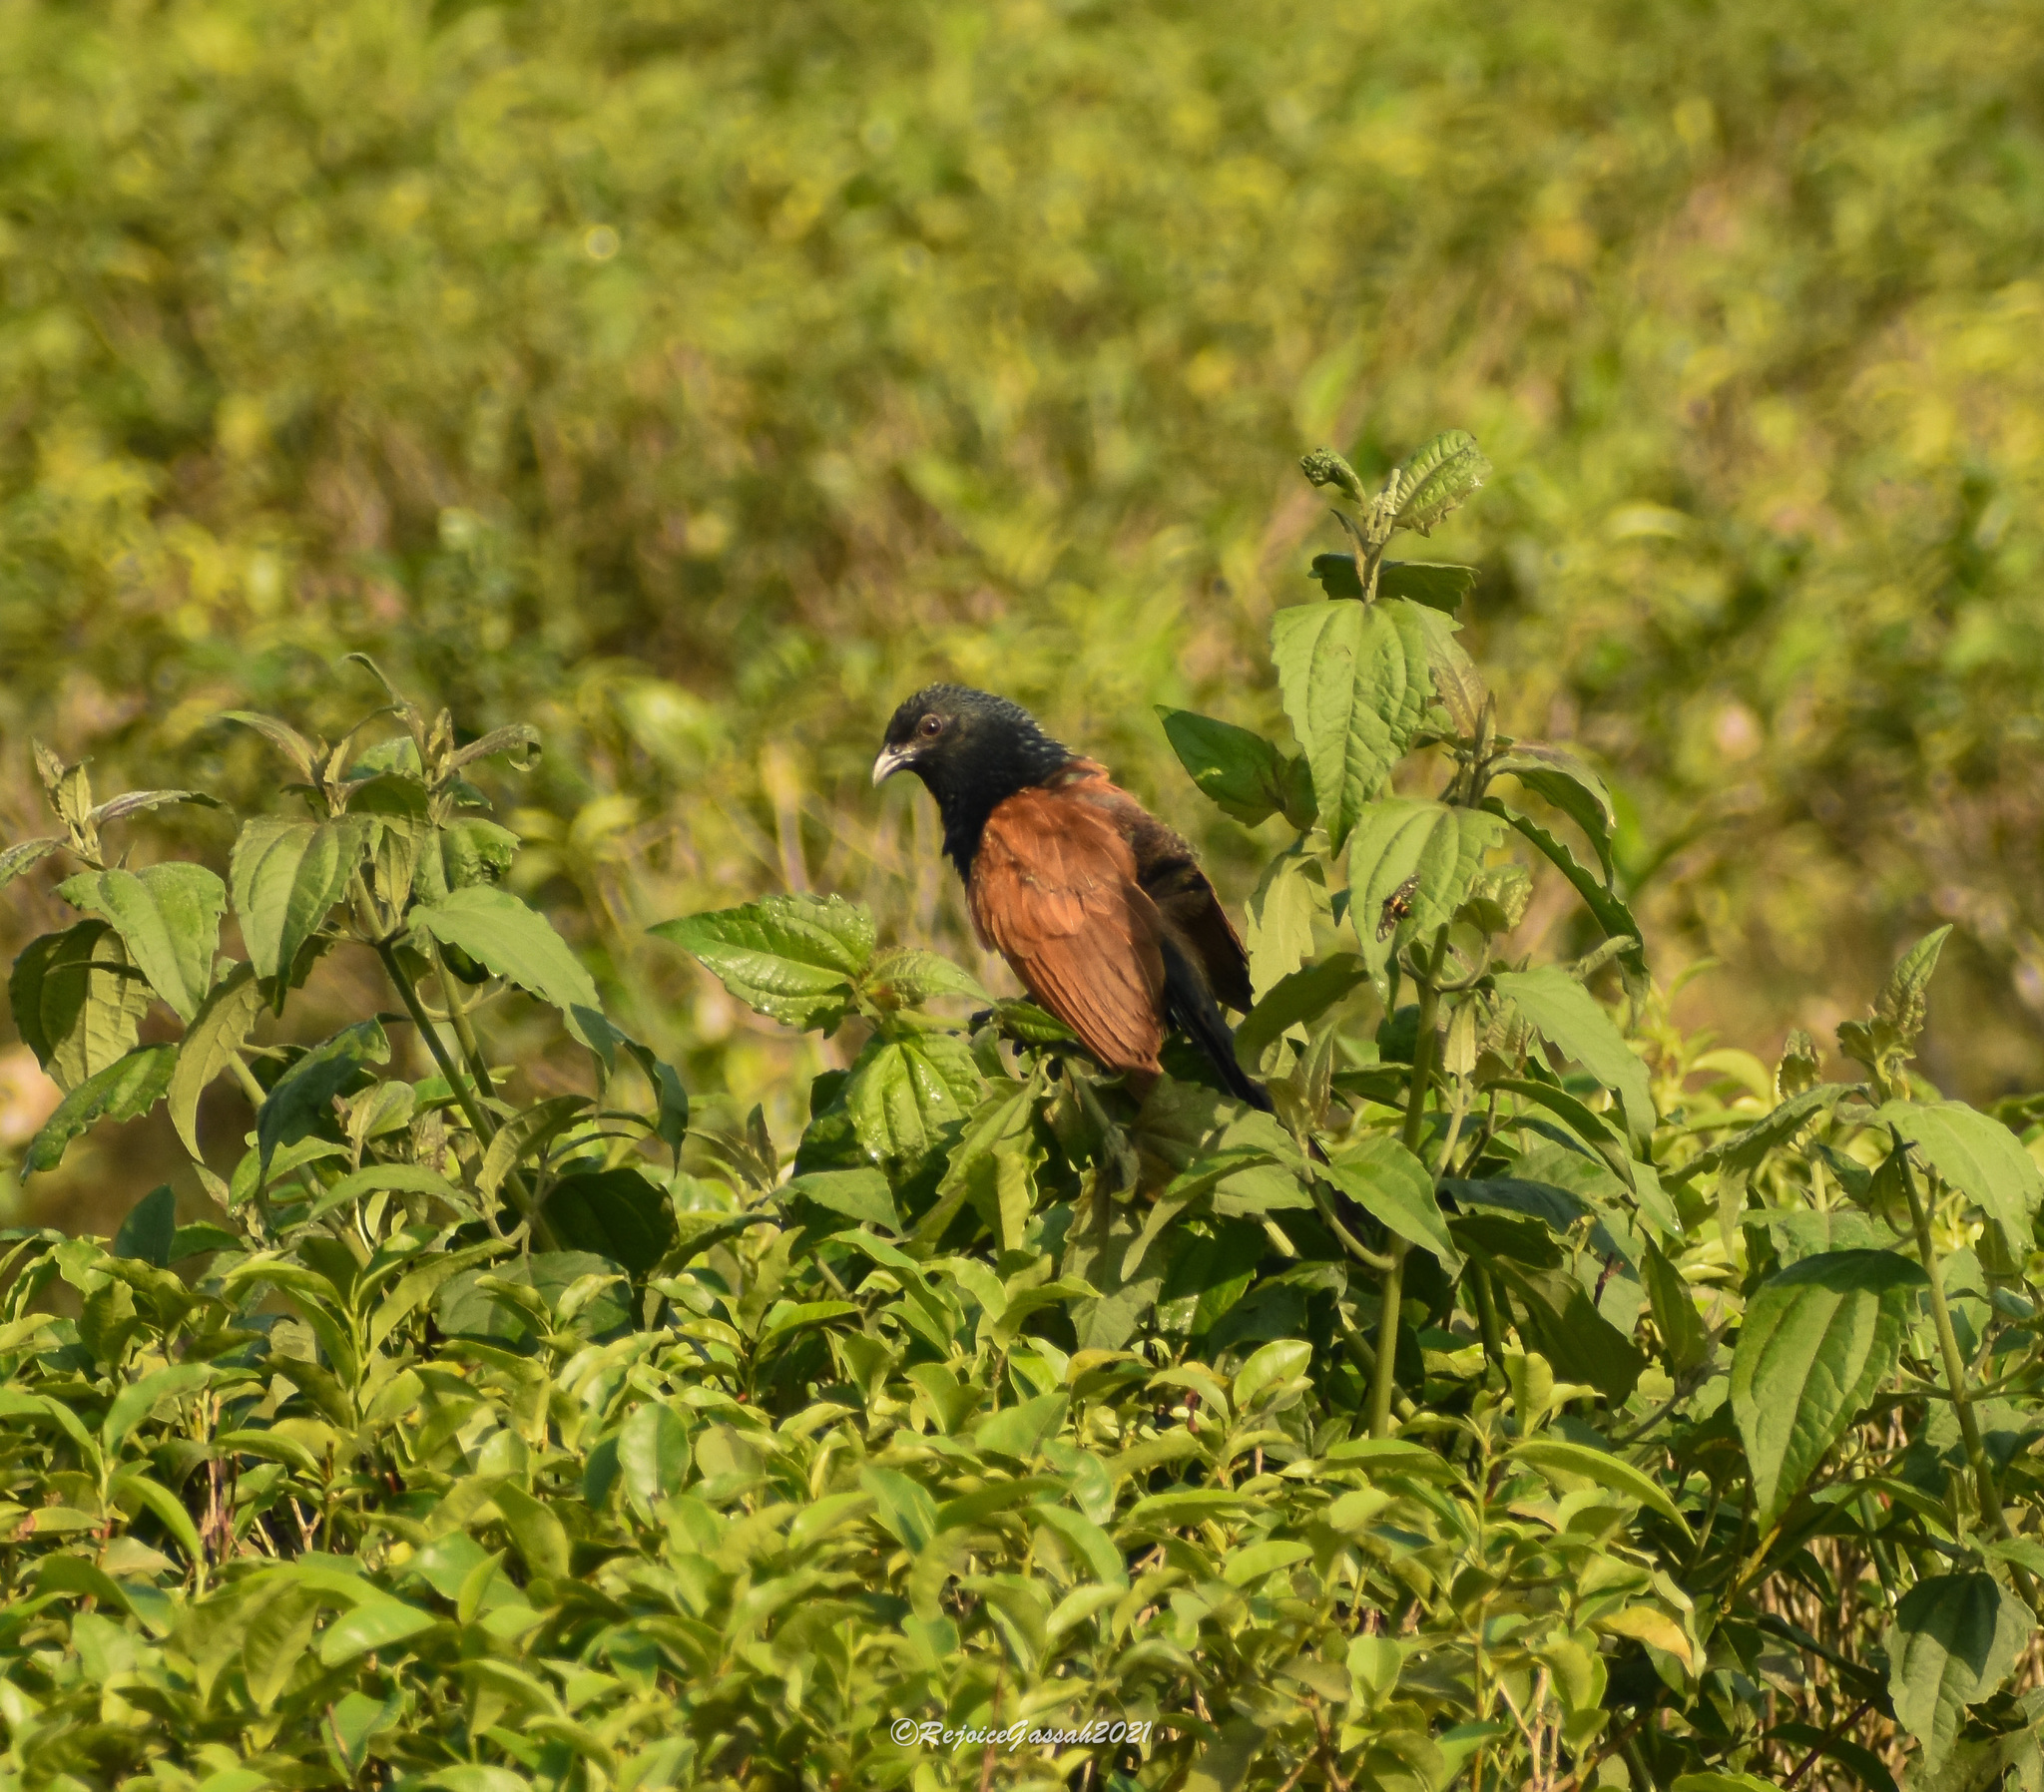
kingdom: Animalia
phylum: Chordata
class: Aves
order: Cuculiformes
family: Cuculidae
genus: Centropus
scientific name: Centropus bengalensis
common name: Lesser coucal
